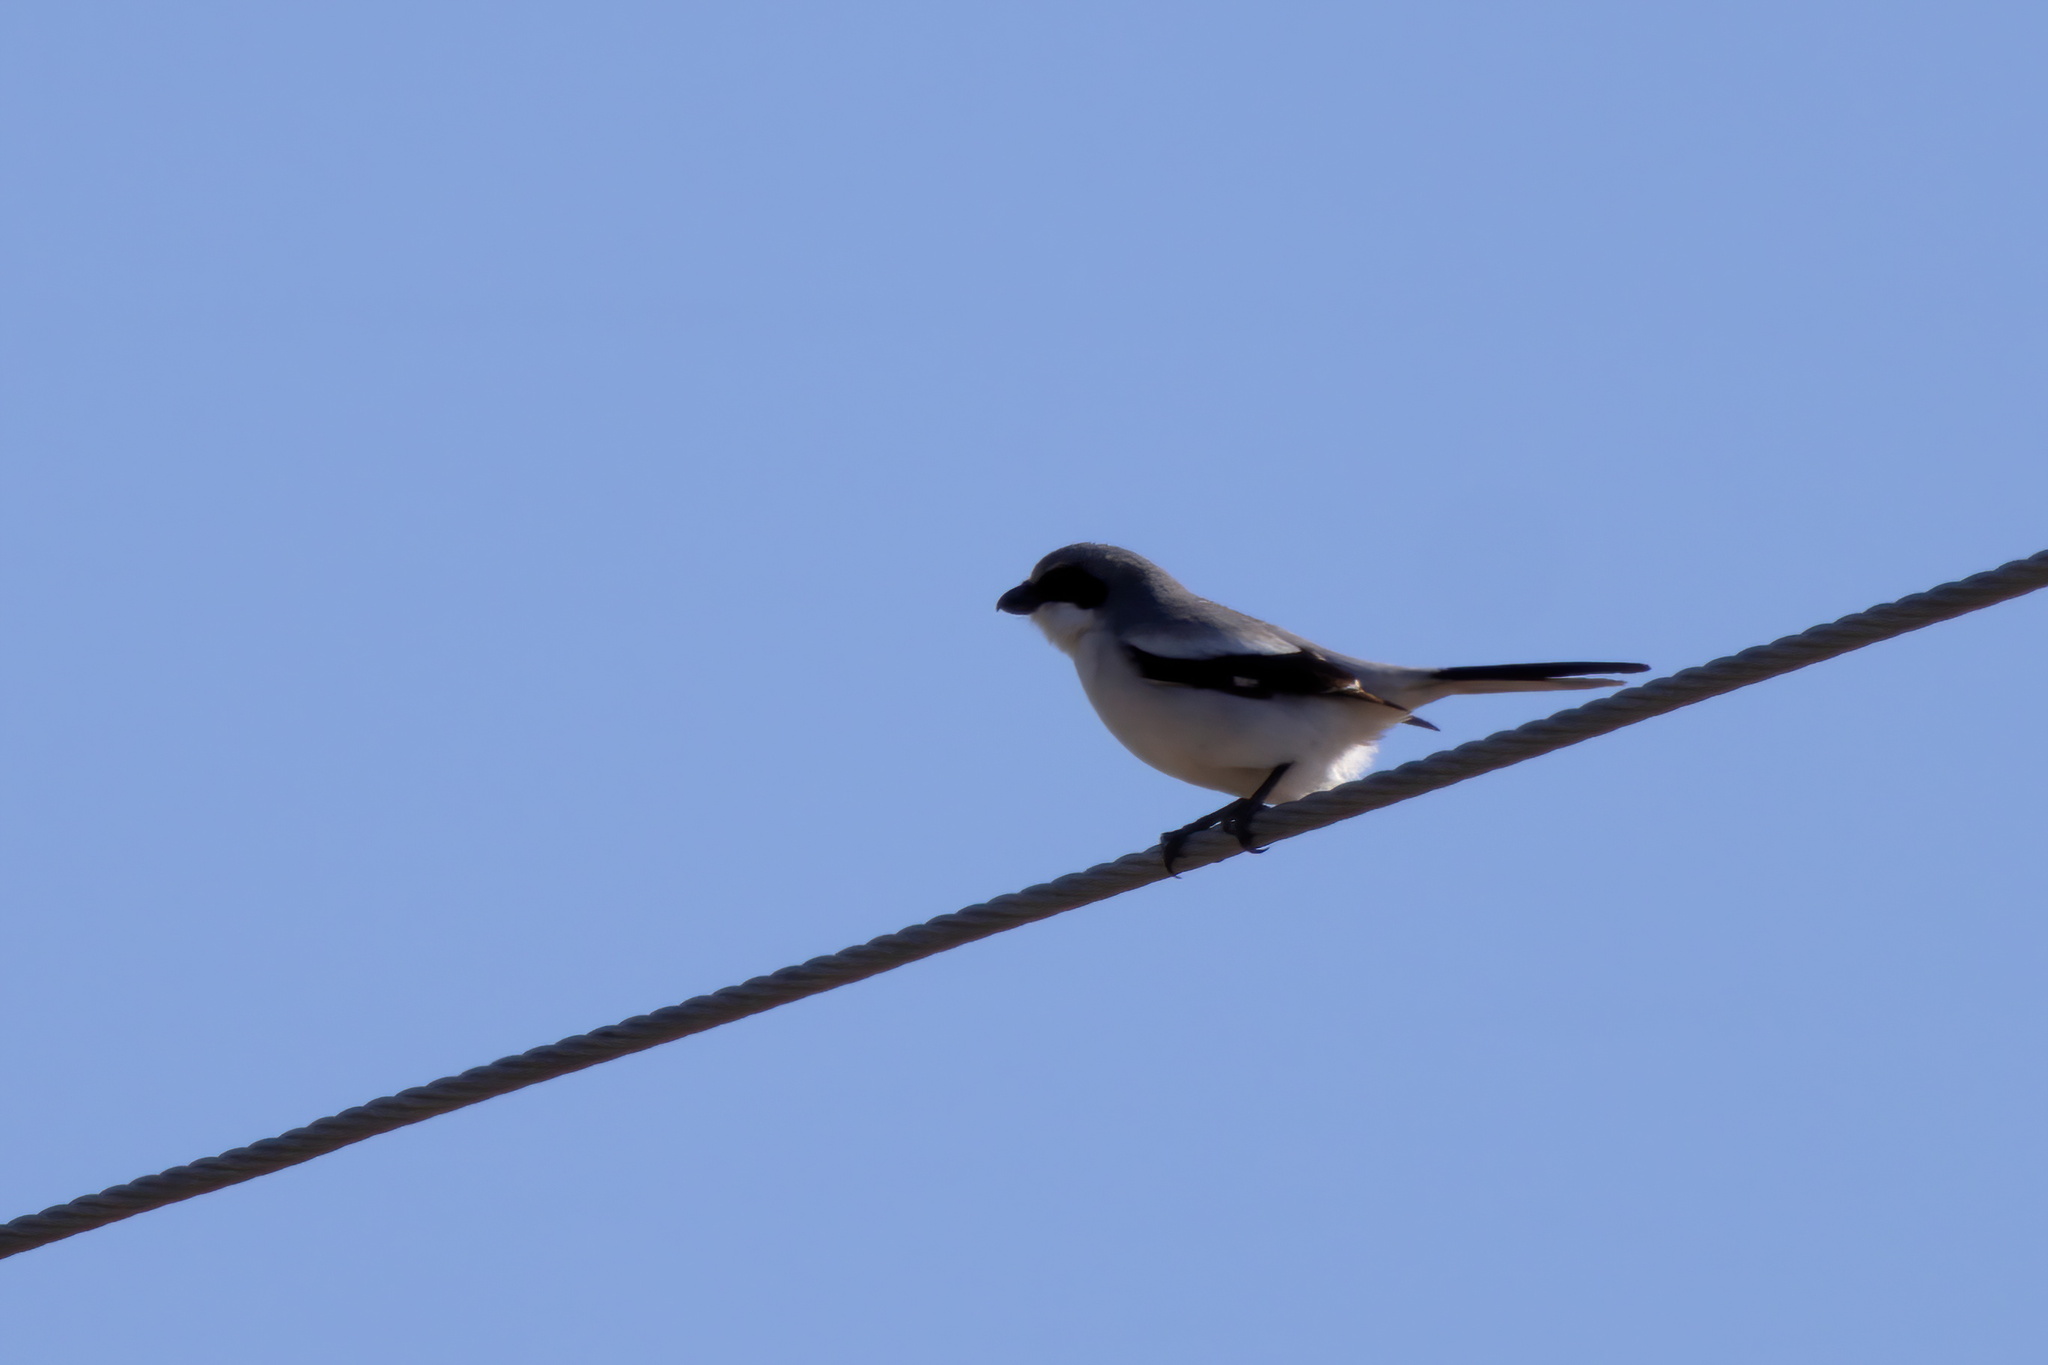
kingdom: Animalia
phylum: Chordata
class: Aves
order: Passeriformes
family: Laniidae
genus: Lanius
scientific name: Lanius ludovicianus
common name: Loggerhead shrike
